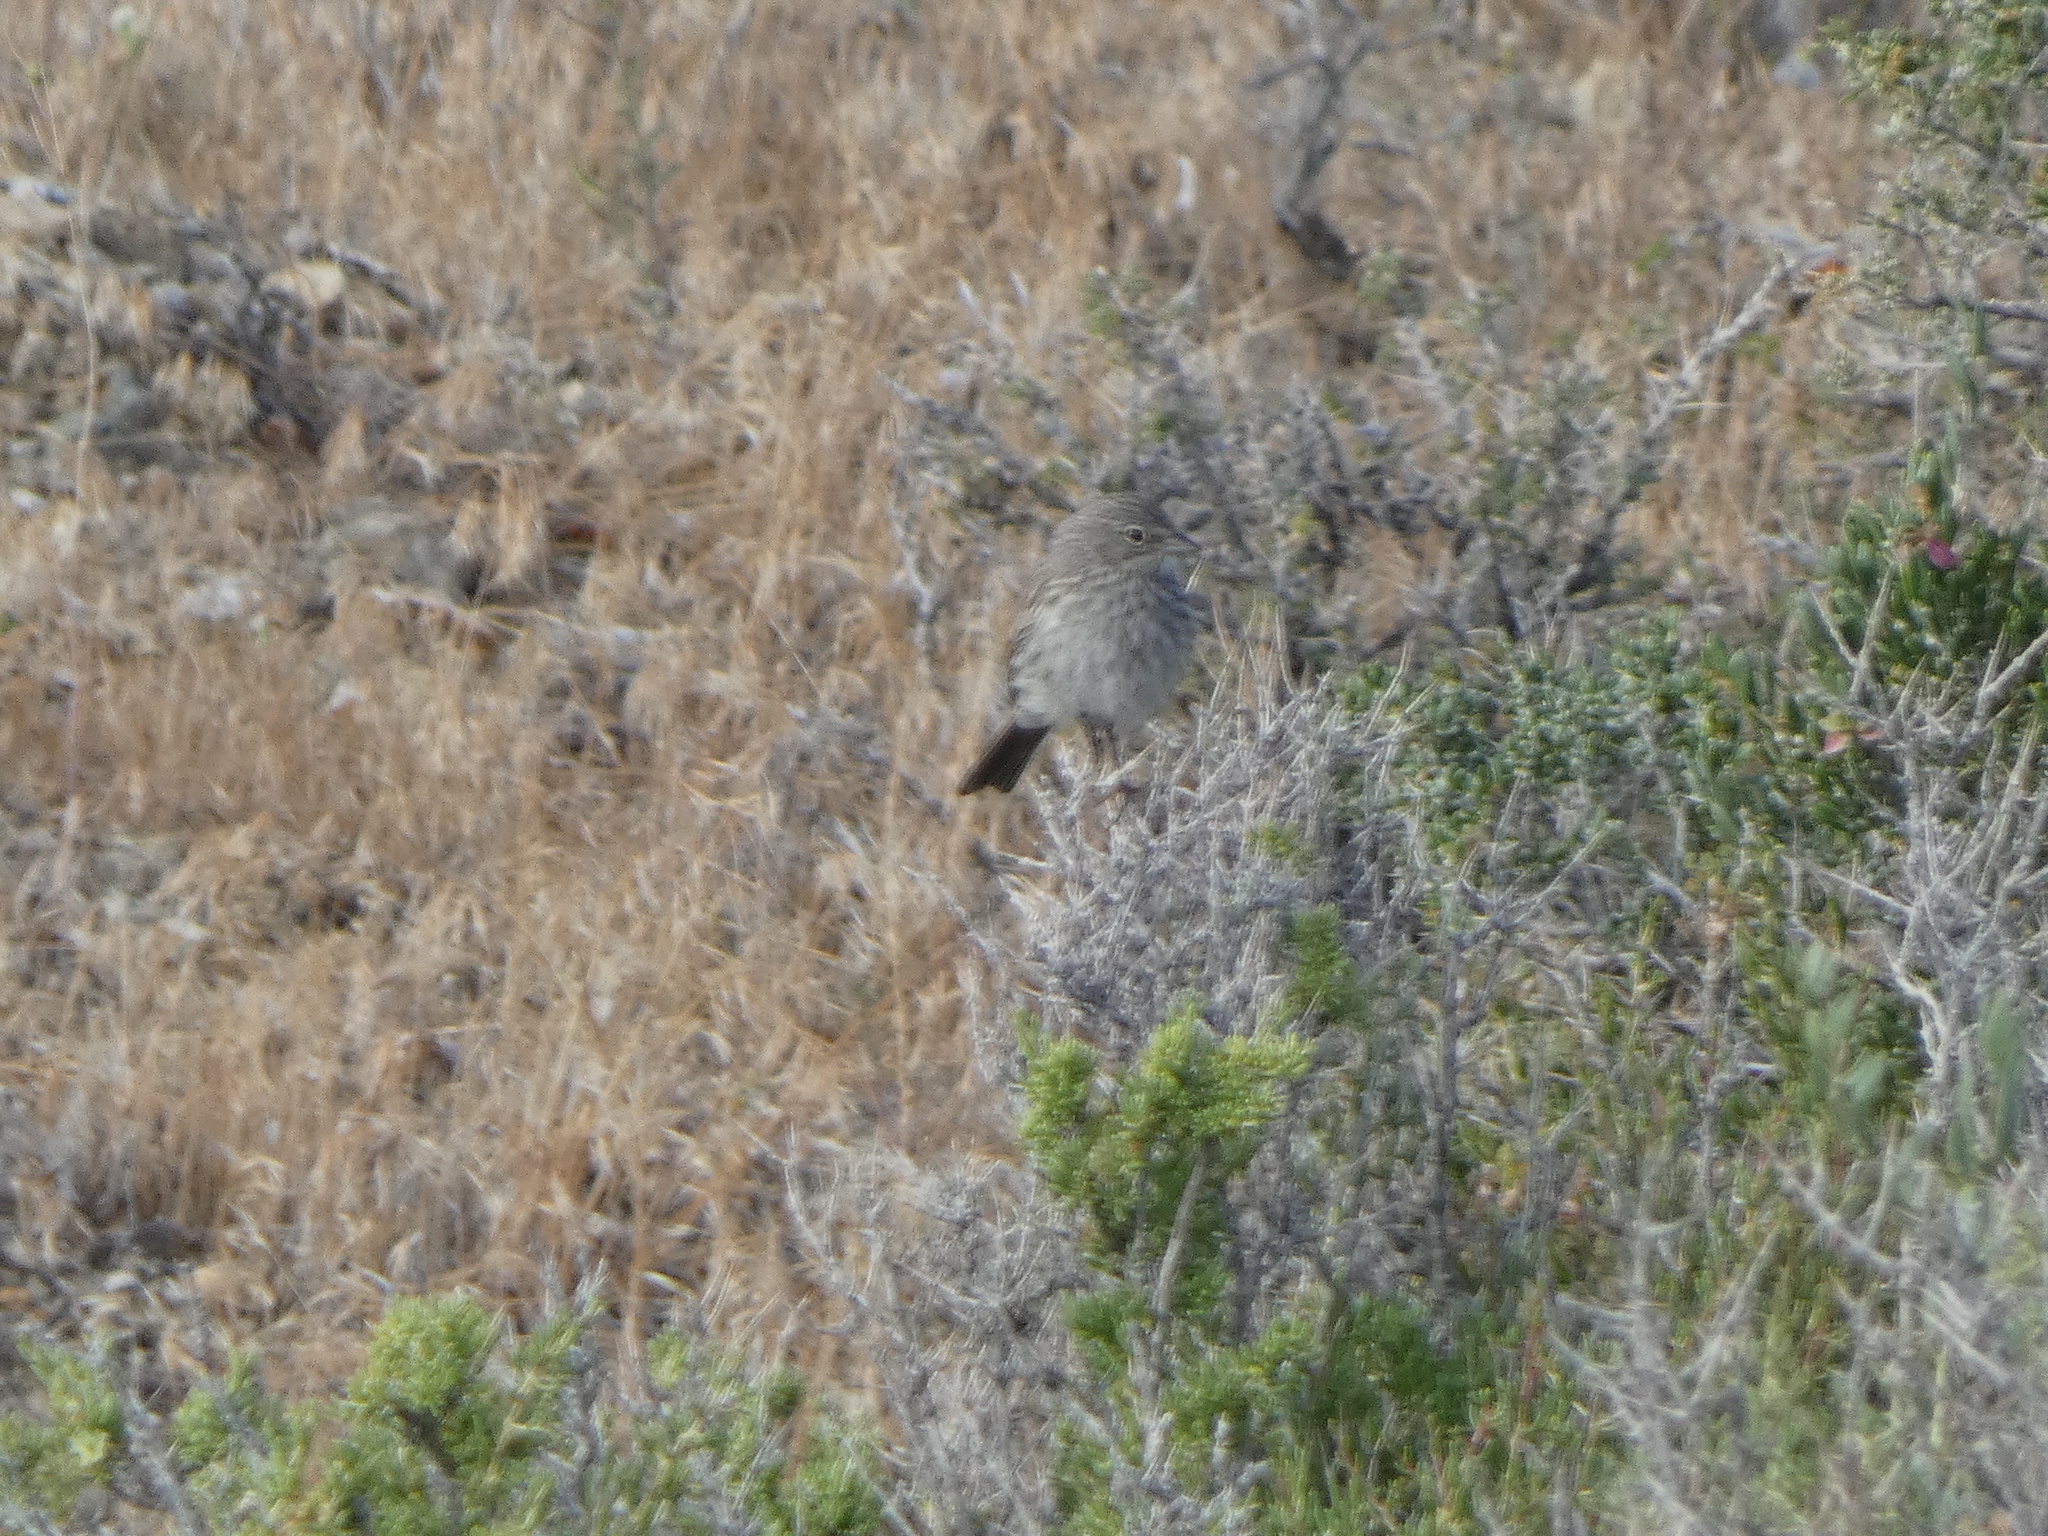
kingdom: Animalia
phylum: Chordata
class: Aves
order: Passeriformes
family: Passerellidae
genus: Artemisiospiza
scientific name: Artemisiospiza nevadensis
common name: Sagebrush sparrow
